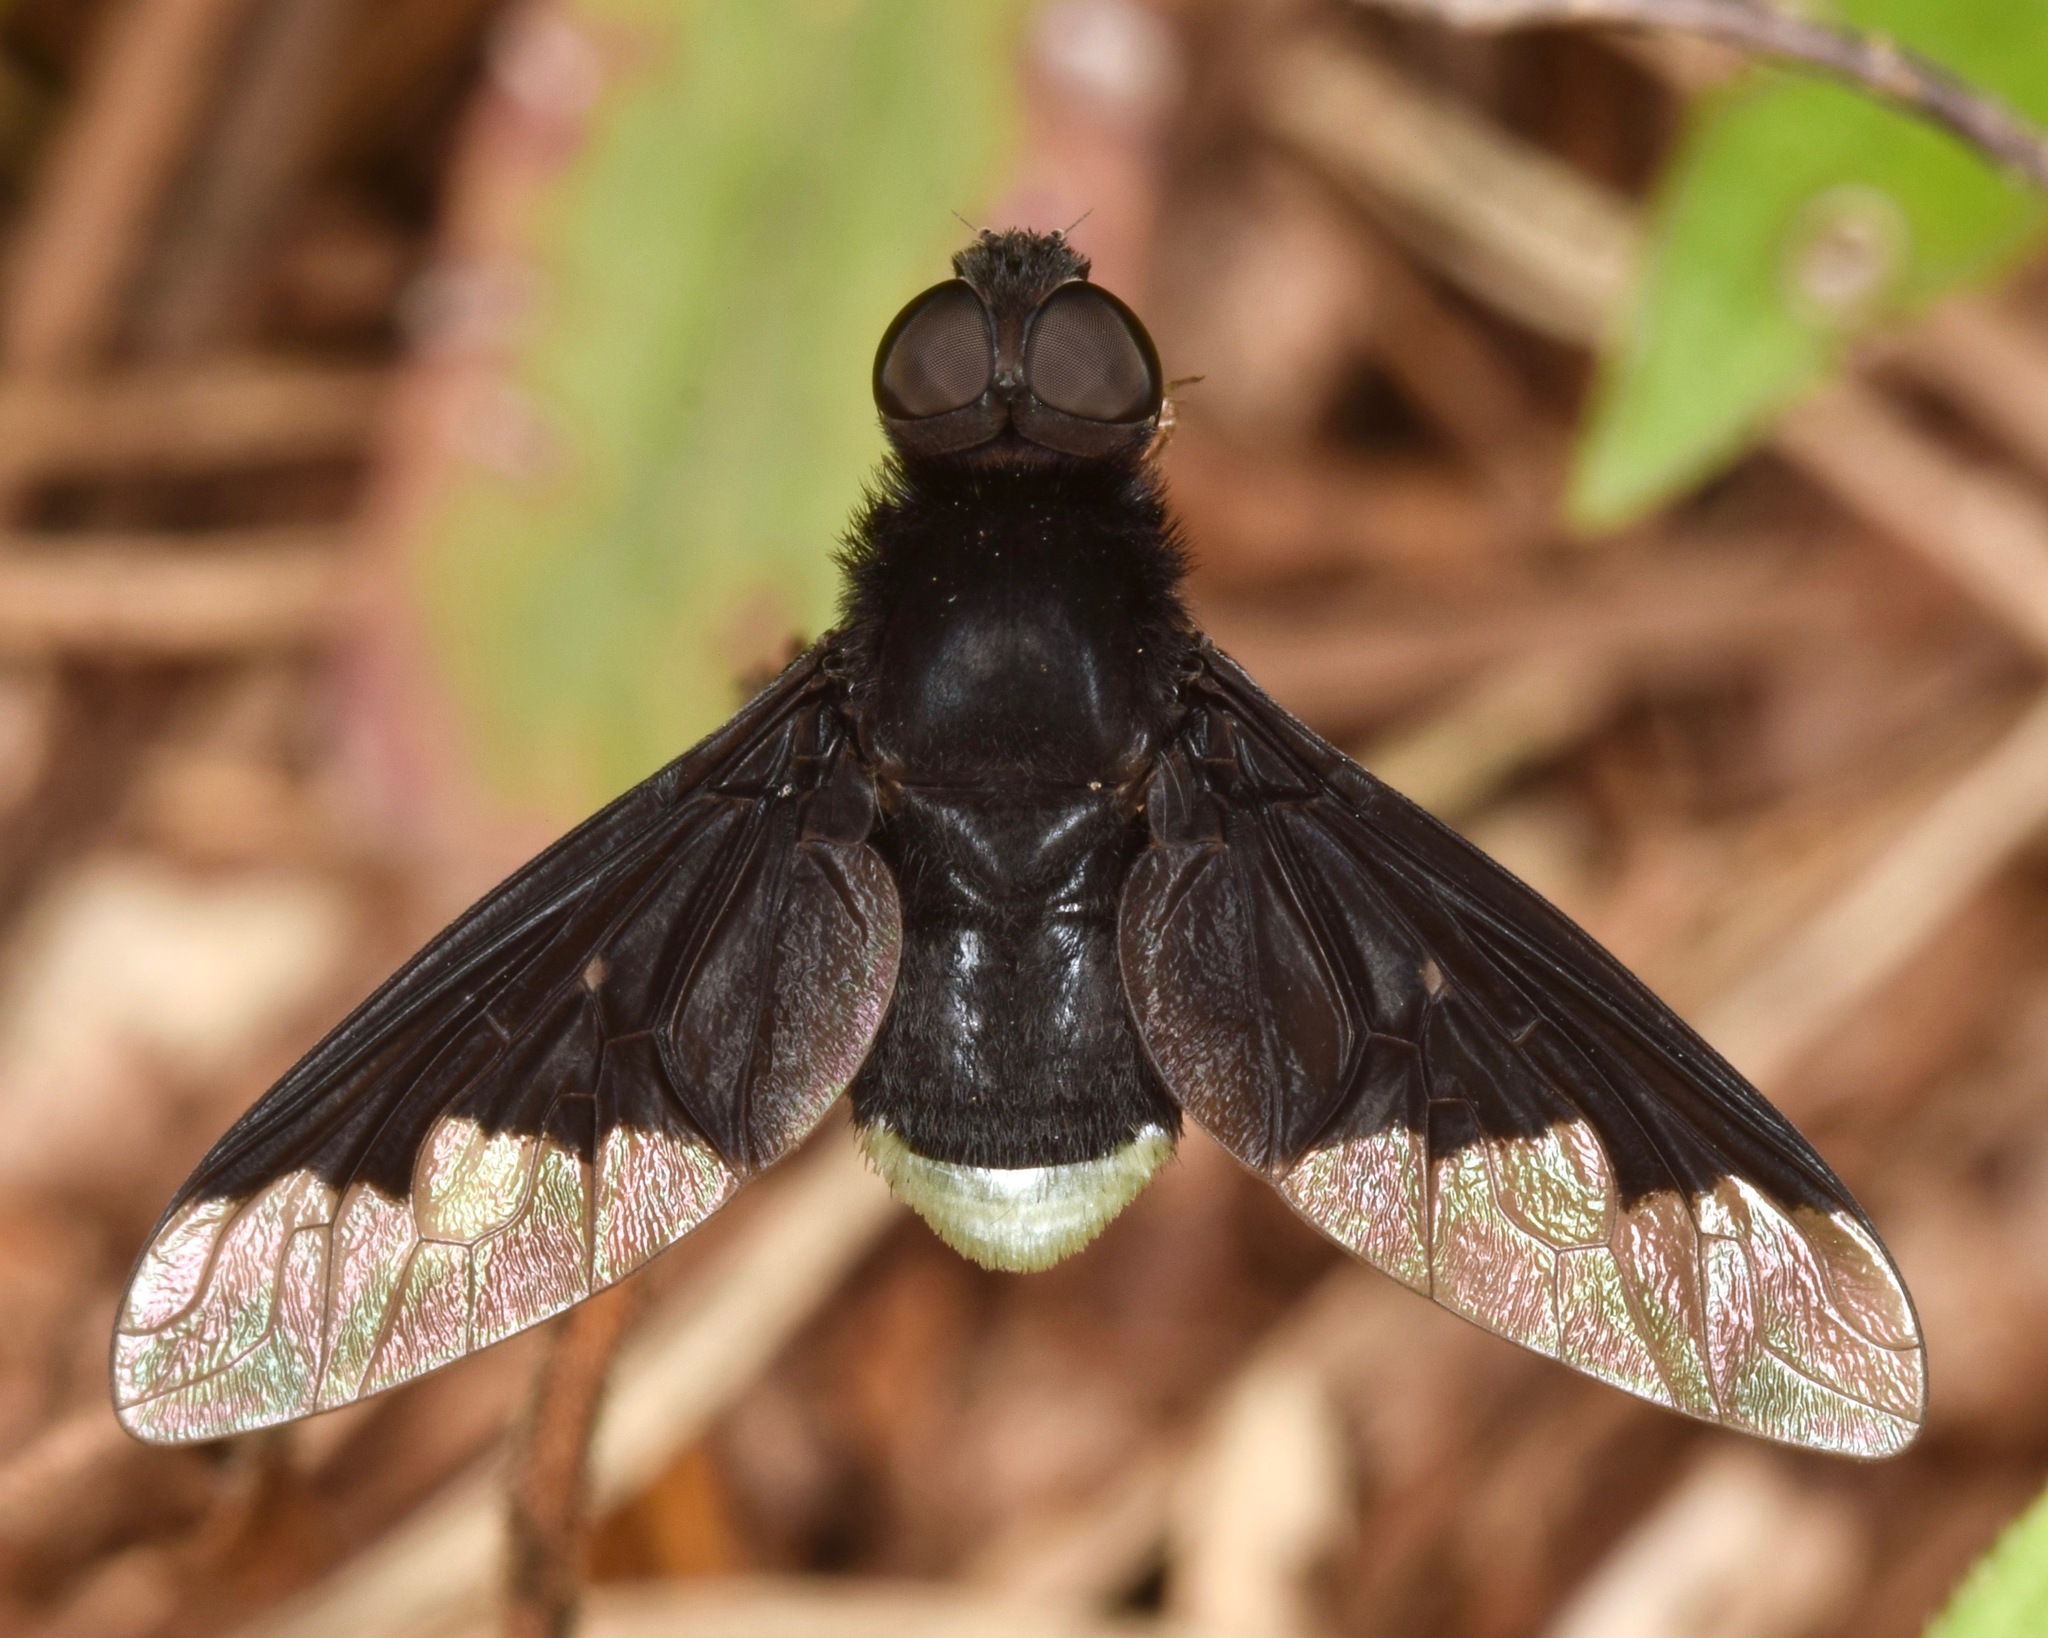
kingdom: Animalia
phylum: Arthropoda
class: Insecta
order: Diptera
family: Bombyliidae
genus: Anthrax
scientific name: Anthrax analis
